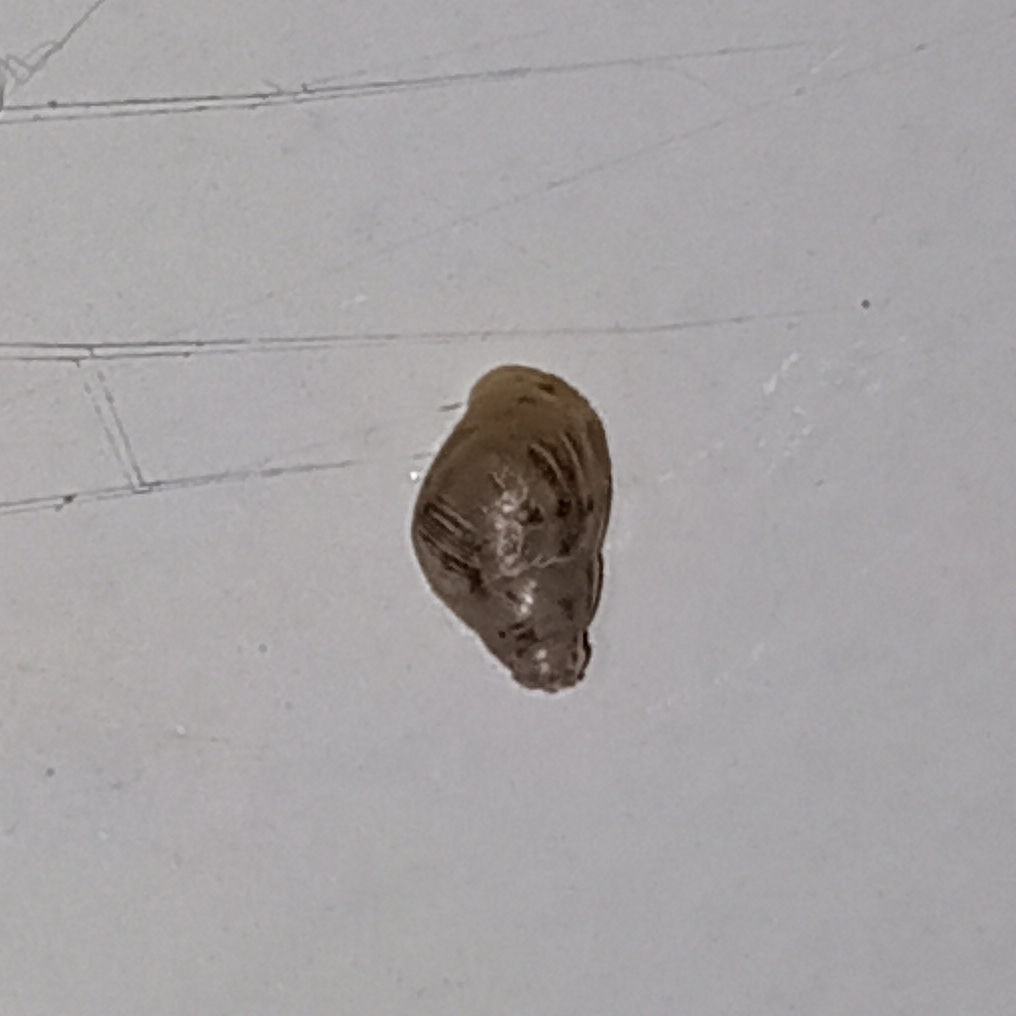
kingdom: Animalia
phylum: Mollusca
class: Gastropoda
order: Stylommatophora
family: Bulimulidae
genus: Drymaeus
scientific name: Drymaeus papyraceus
